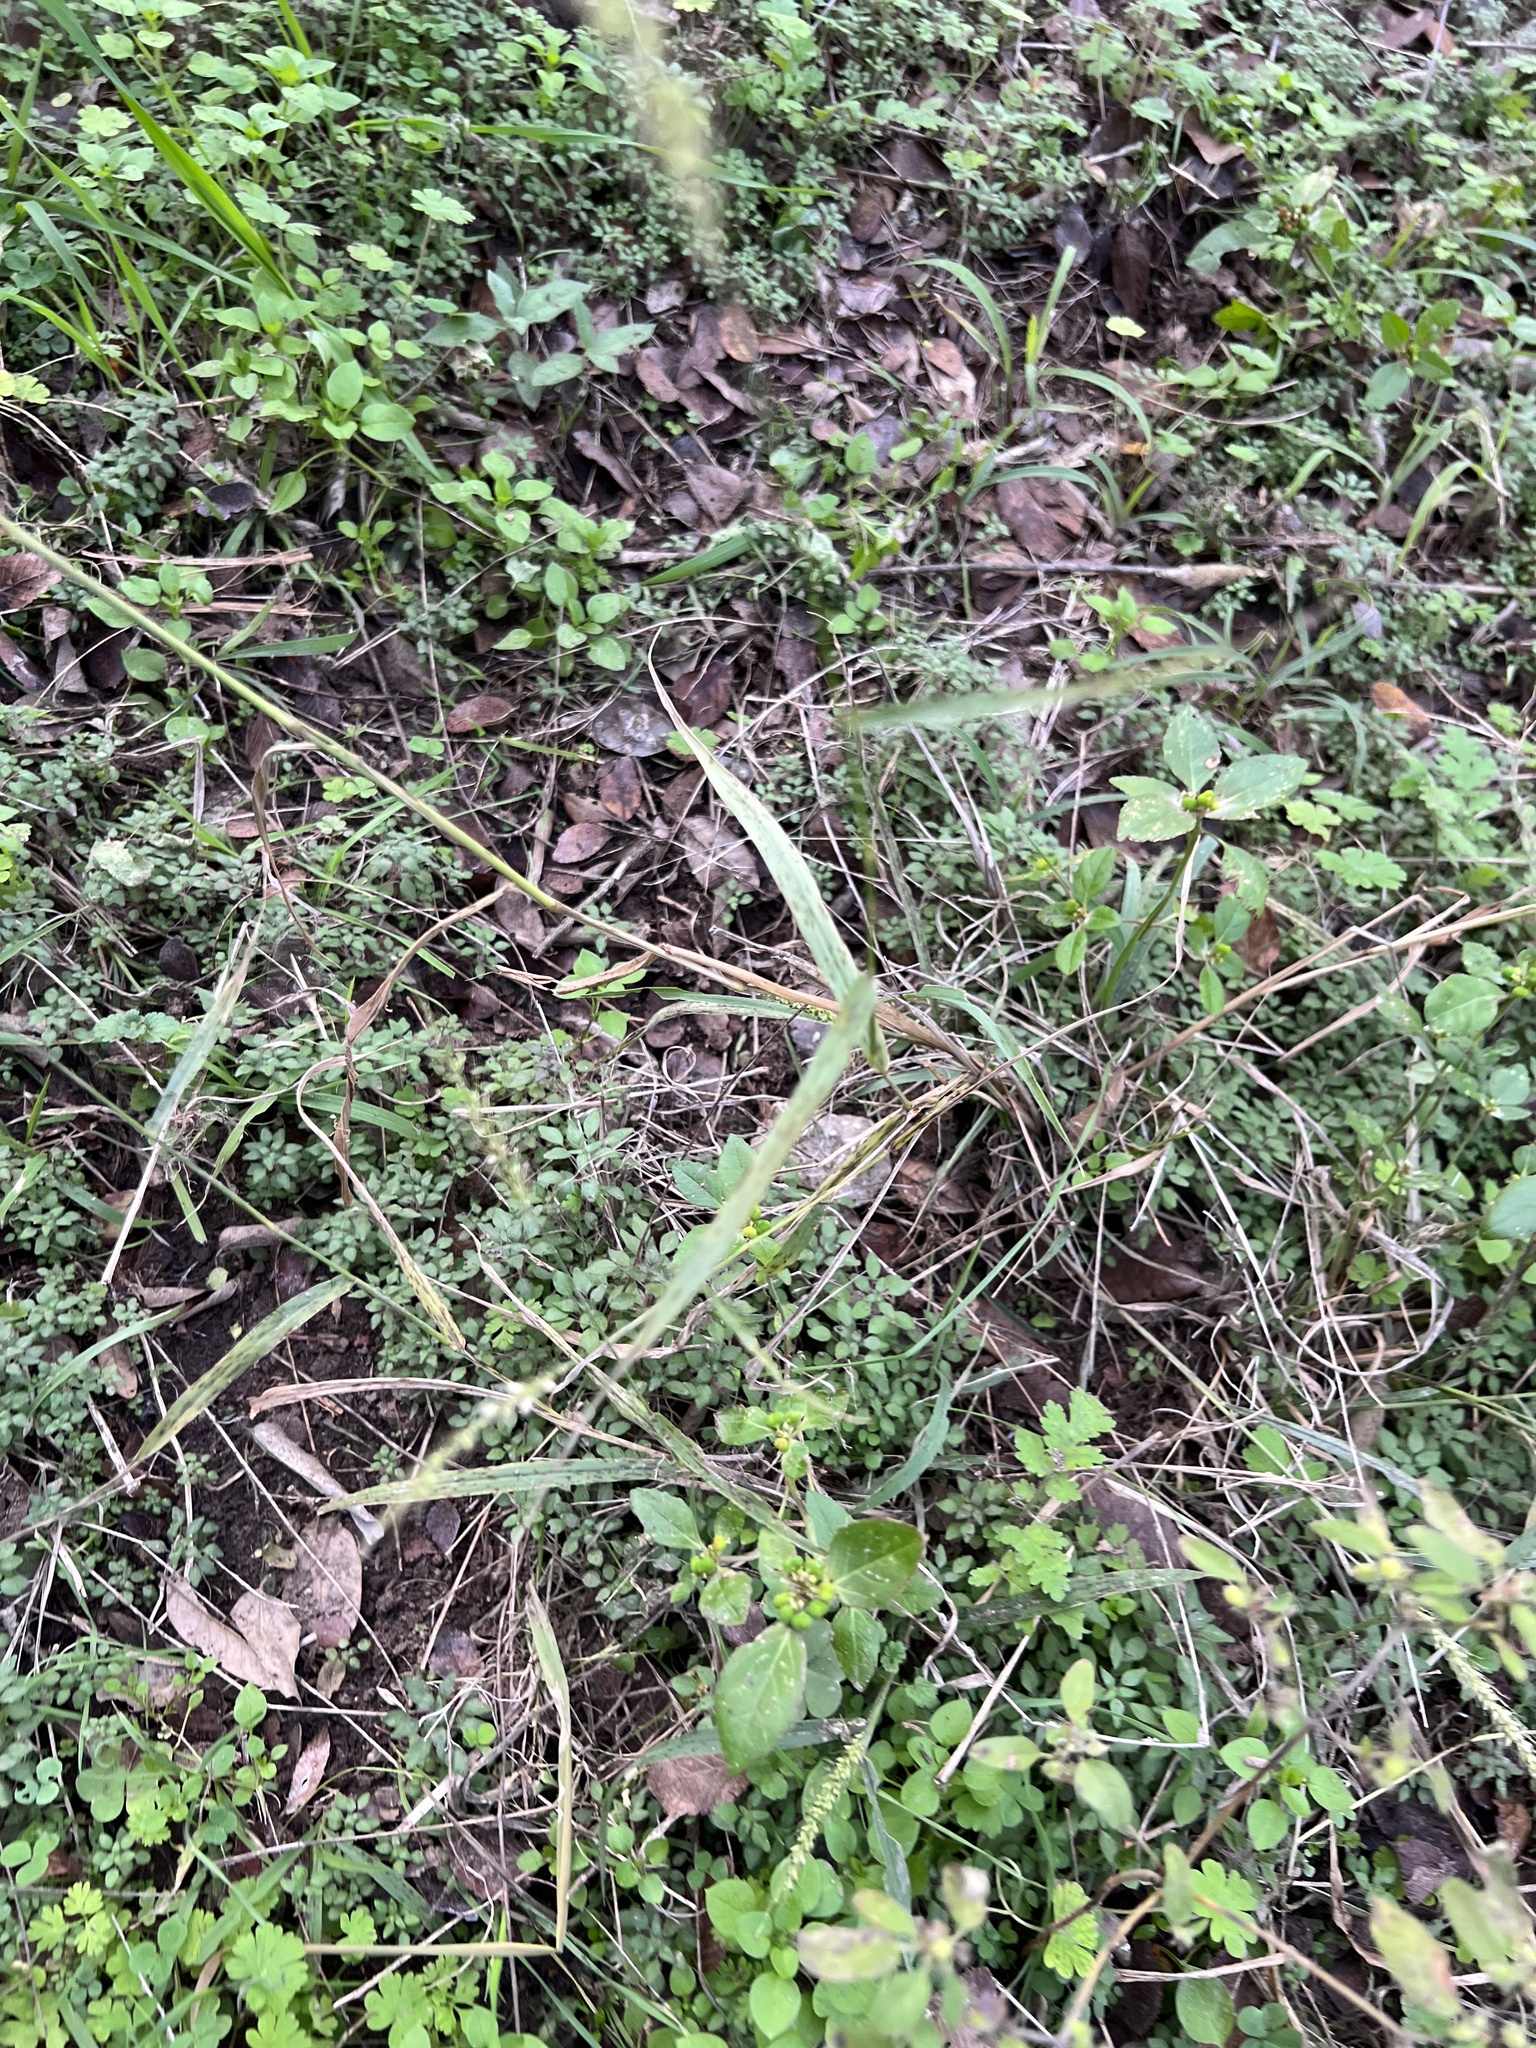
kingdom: Plantae
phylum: Tracheophyta
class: Liliopsida
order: Poales
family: Poaceae
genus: Setaria
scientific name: Setaria scheelei
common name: Southwestern bristle grass
